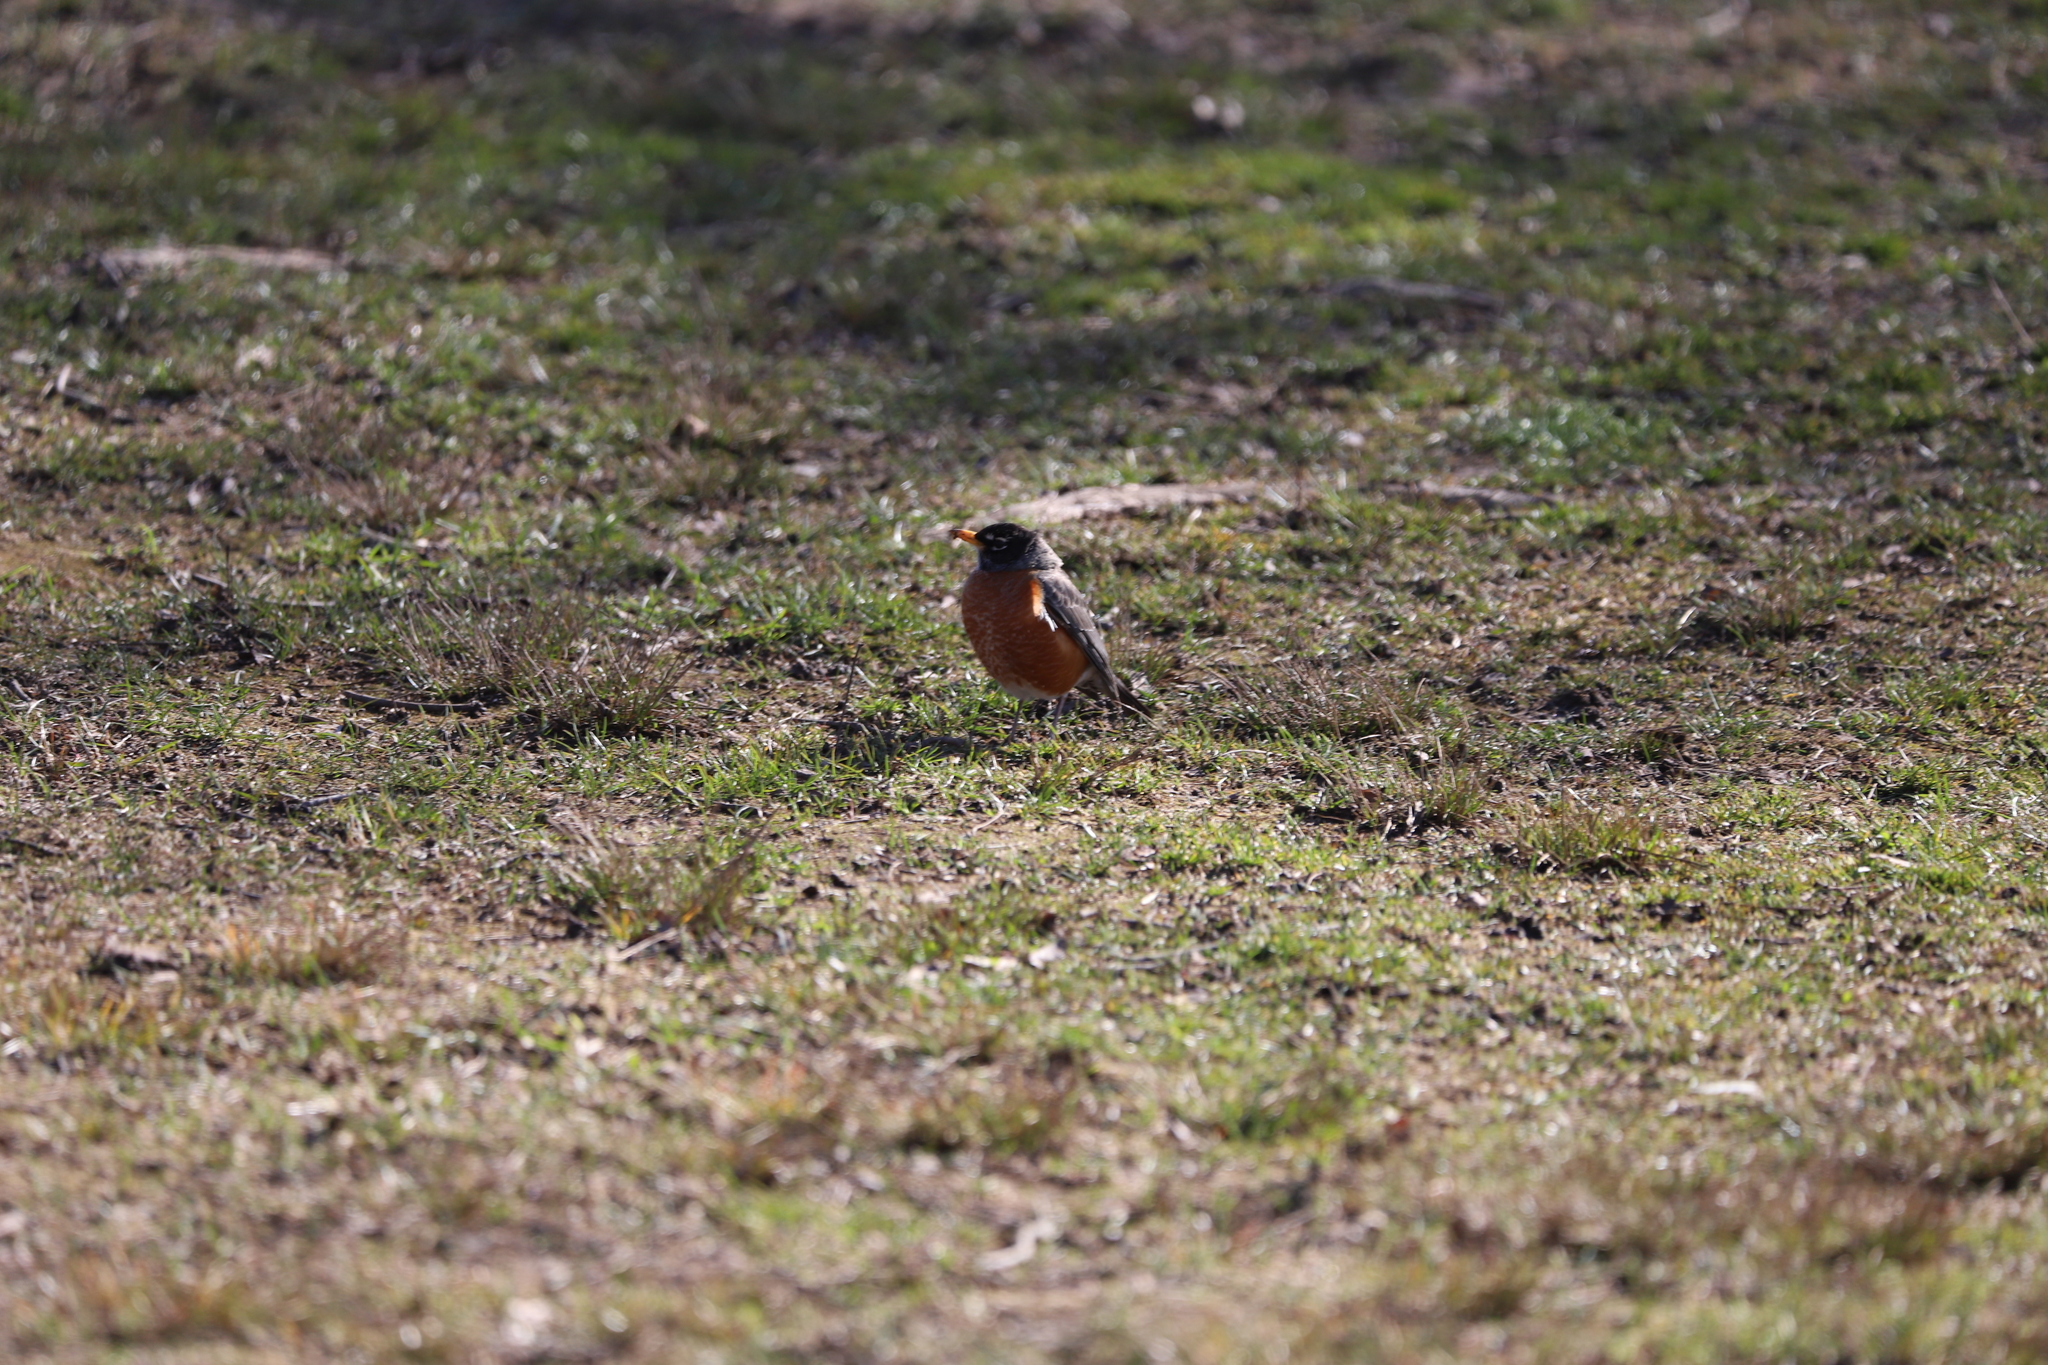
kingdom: Animalia
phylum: Chordata
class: Aves
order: Passeriformes
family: Turdidae
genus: Turdus
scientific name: Turdus migratorius
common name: American robin
